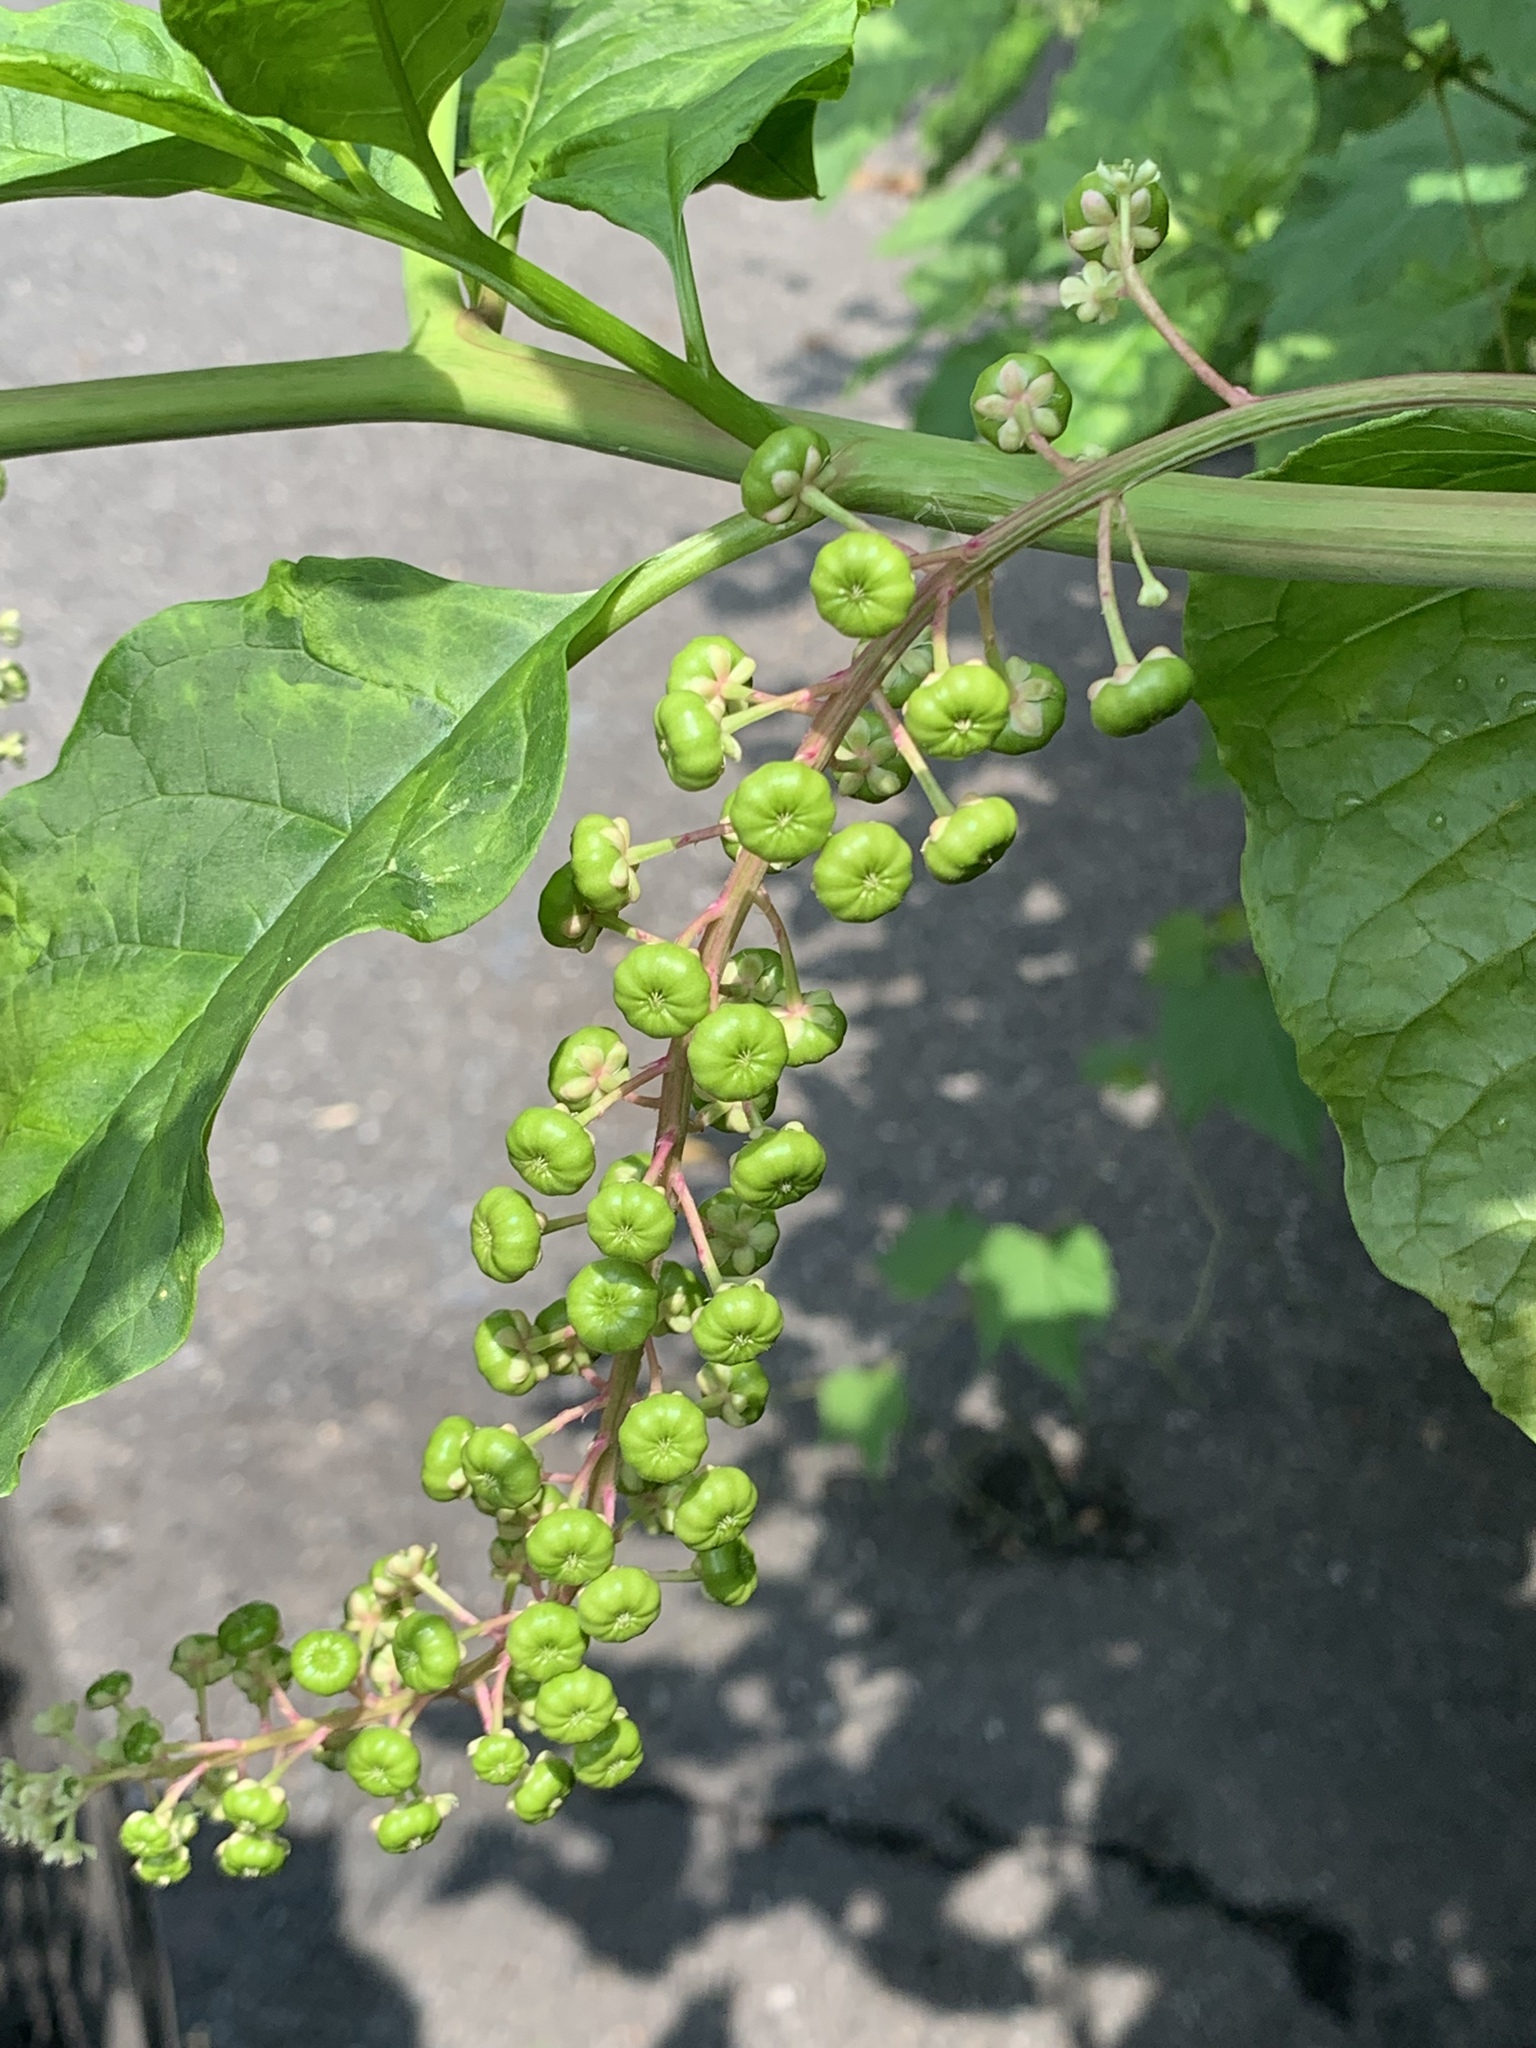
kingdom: Plantae
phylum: Tracheophyta
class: Magnoliopsida
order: Caryophyllales
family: Phytolaccaceae
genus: Phytolacca
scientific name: Phytolacca americana
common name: American pokeweed
